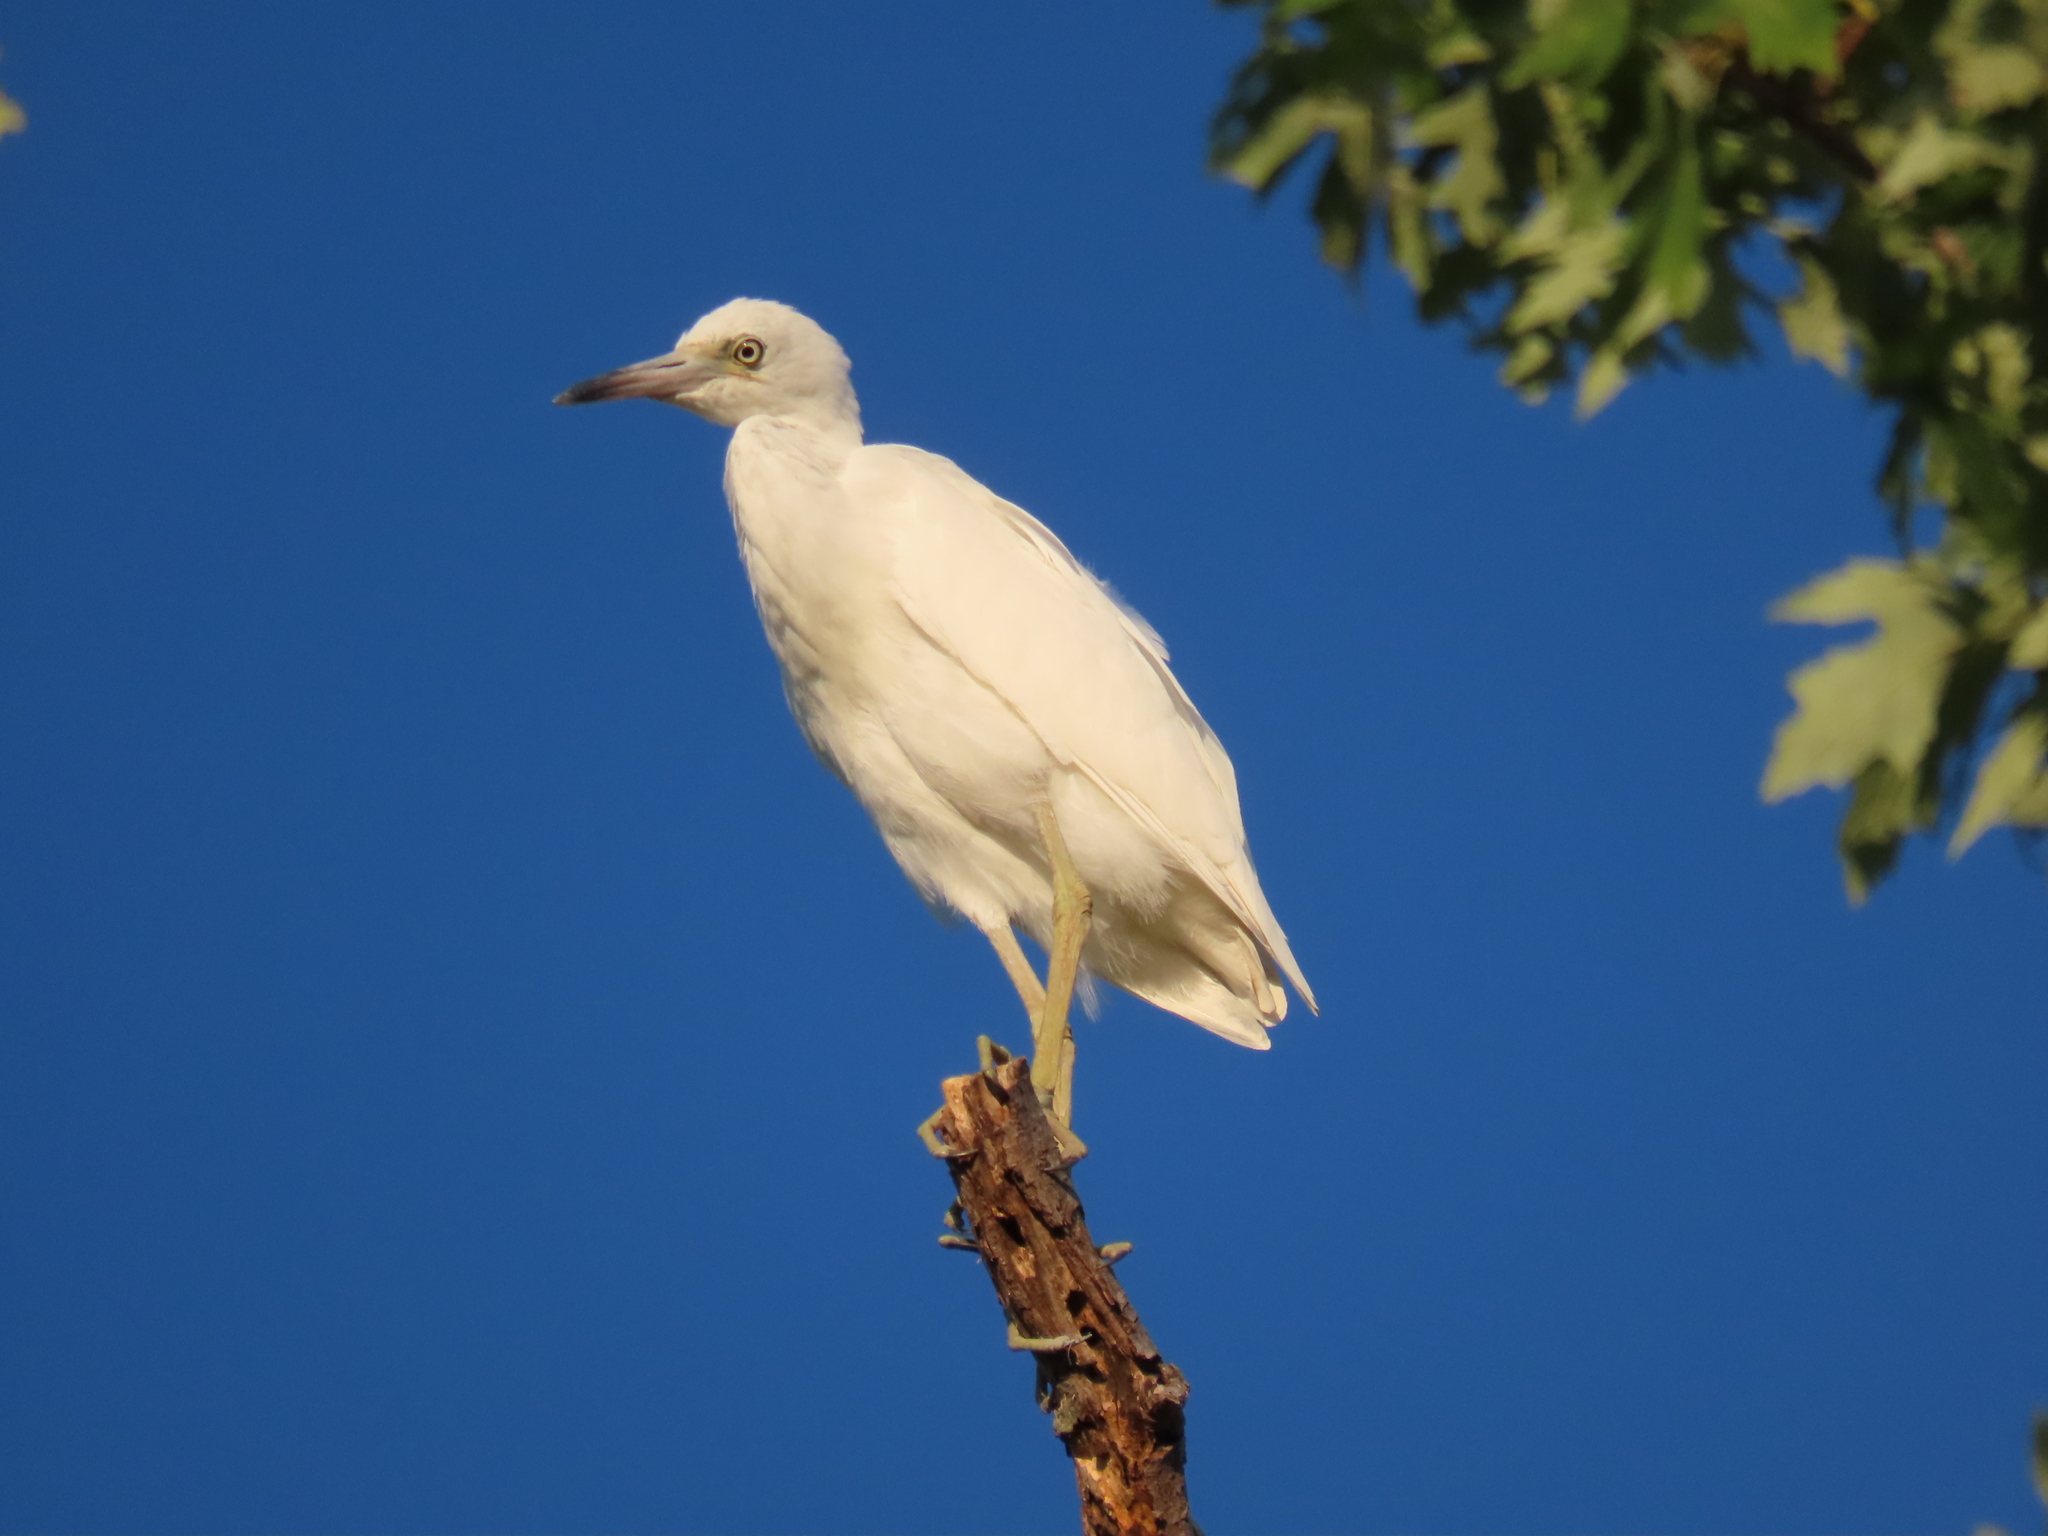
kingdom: Animalia
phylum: Chordata
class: Aves
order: Pelecaniformes
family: Ardeidae
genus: Egretta
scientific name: Egretta caerulea
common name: Little blue heron
